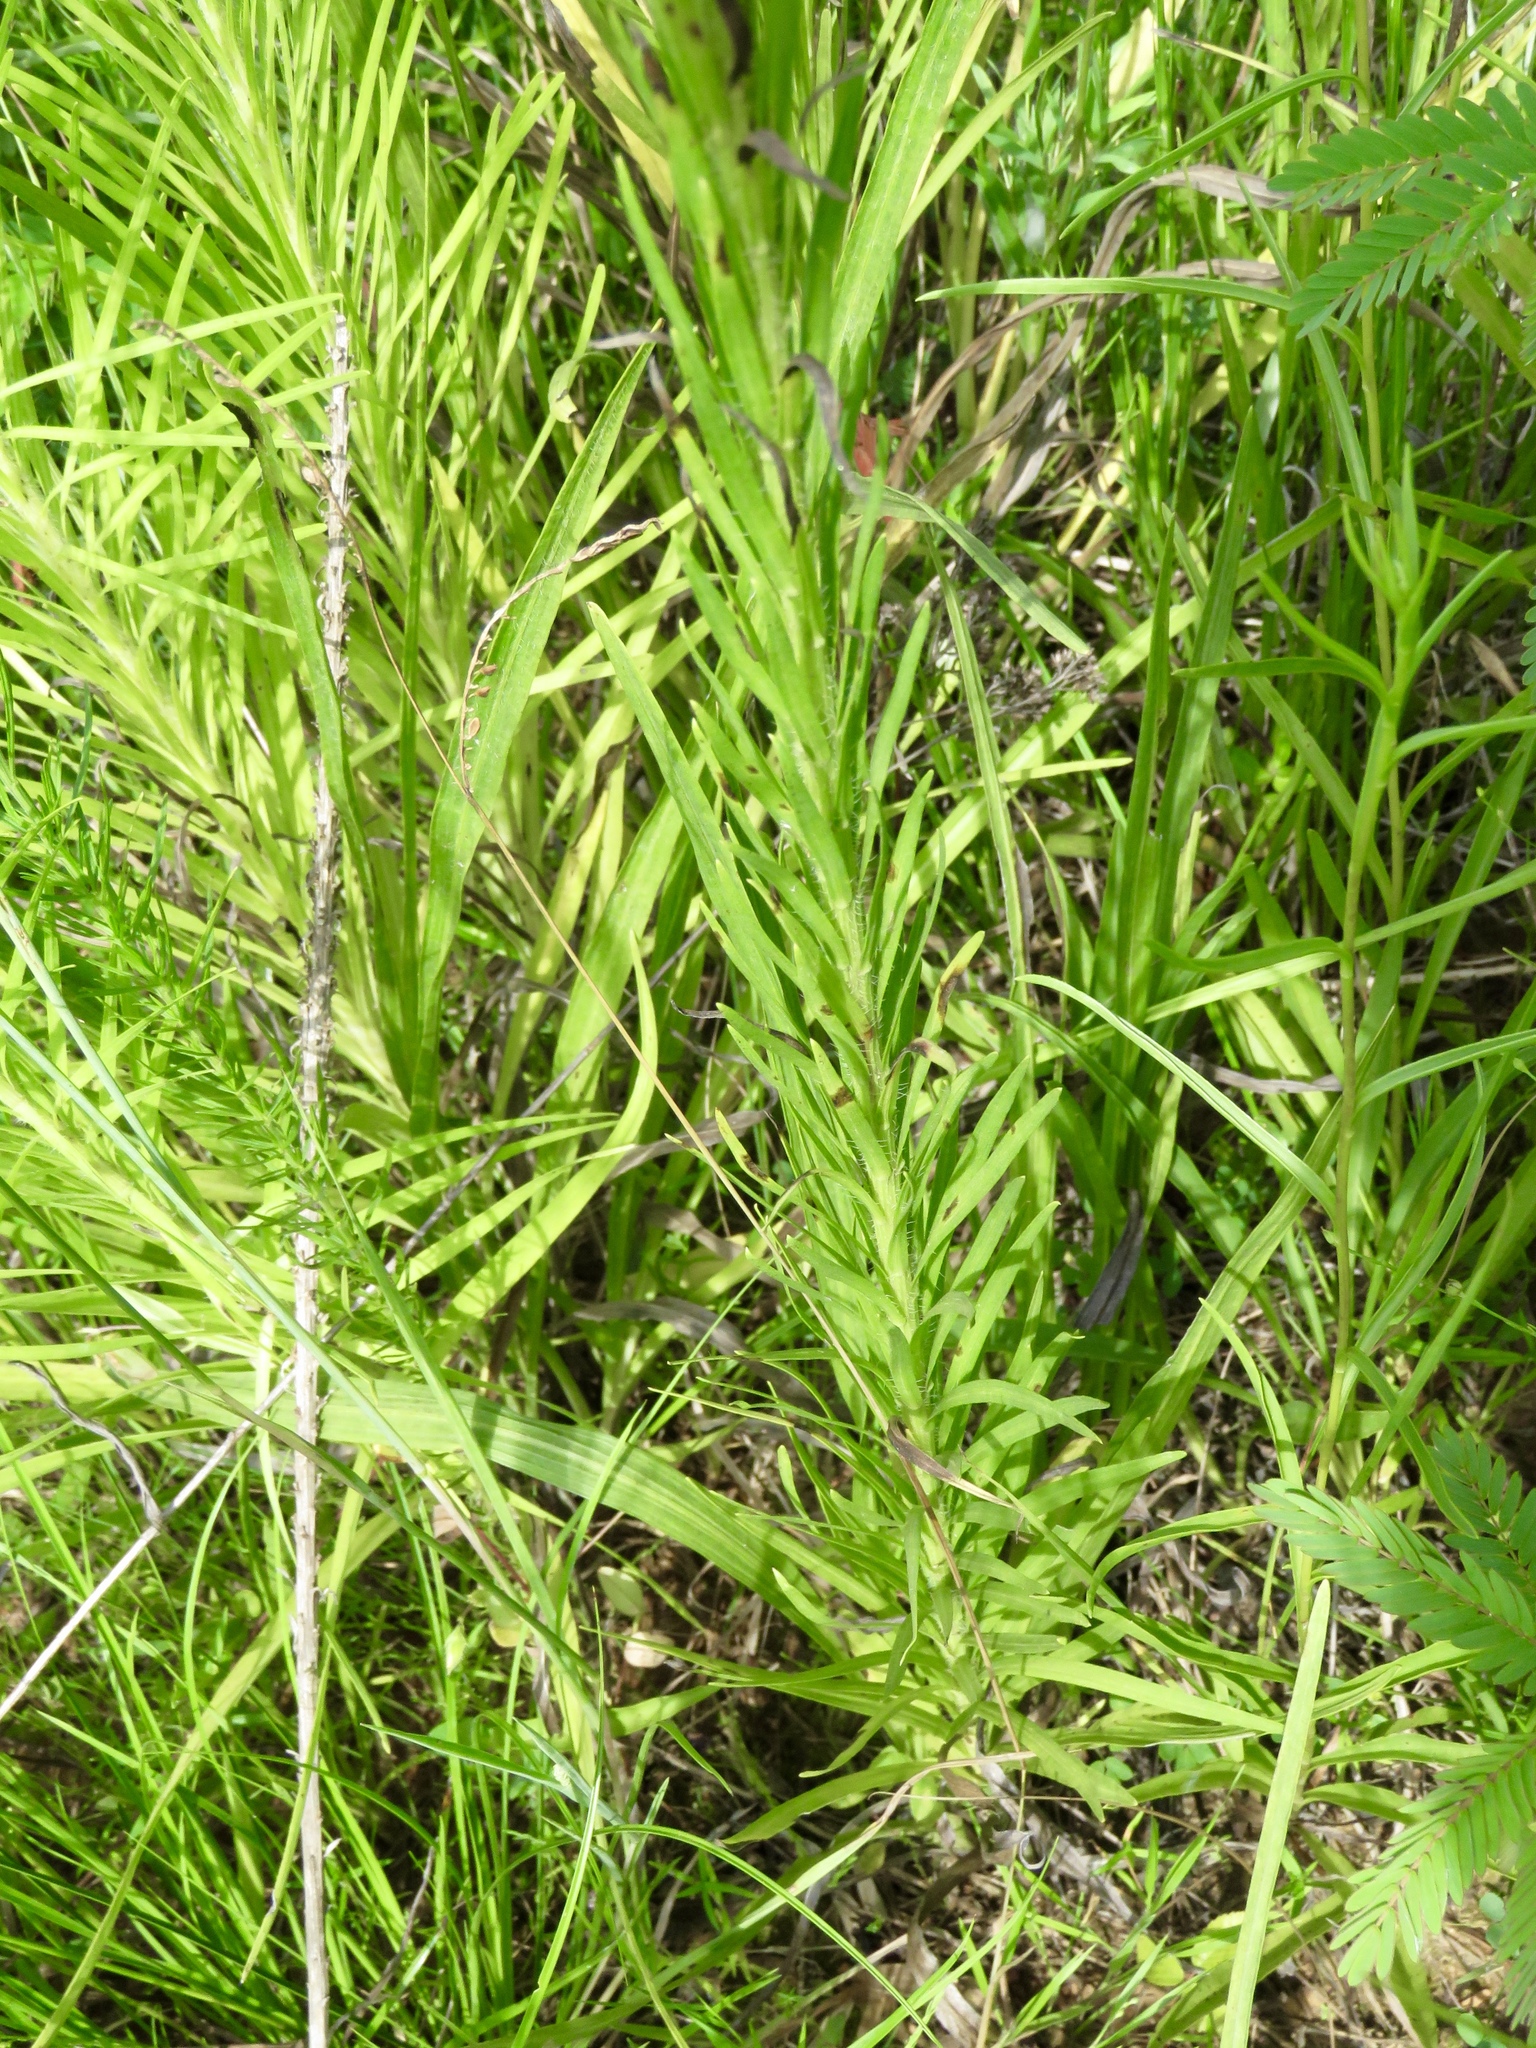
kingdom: Plantae
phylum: Tracheophyta
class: Magnoliopsida
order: Asterales
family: Asteraceae
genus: Liatris
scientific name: Liatris pycnostachya
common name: Cattail gayfeather
